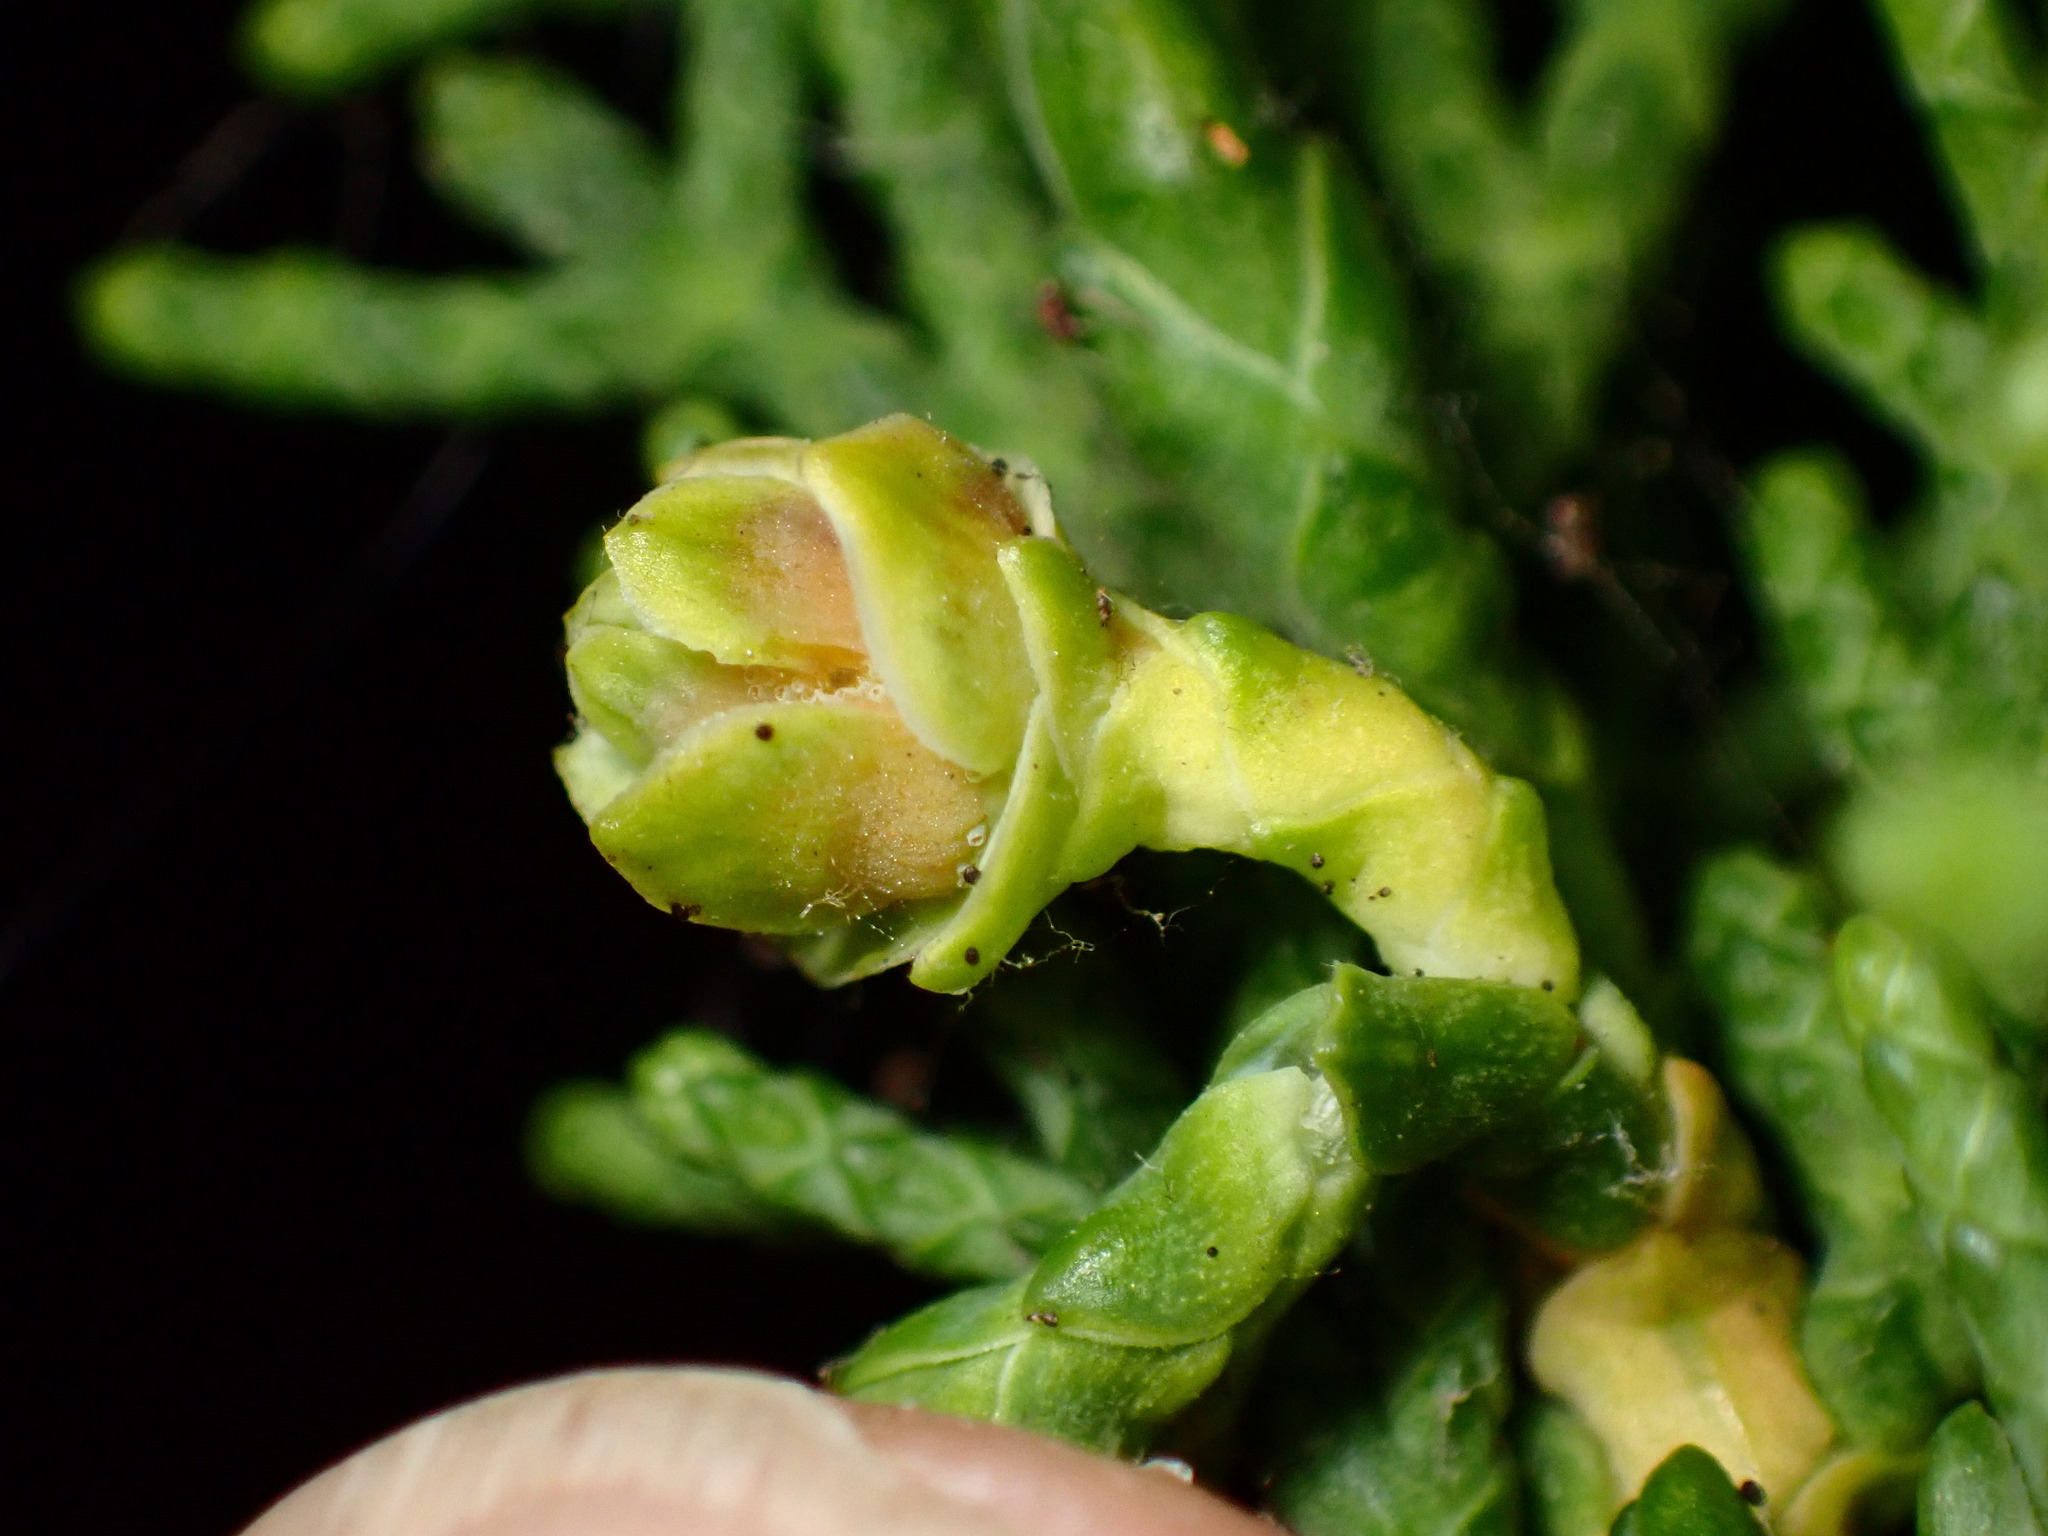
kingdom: Animalia
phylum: Arthropoda
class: Insecta
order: Diptera
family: Cecidomyiidae
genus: Chamaediplosis
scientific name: Chamaediplosis nootkatensis
